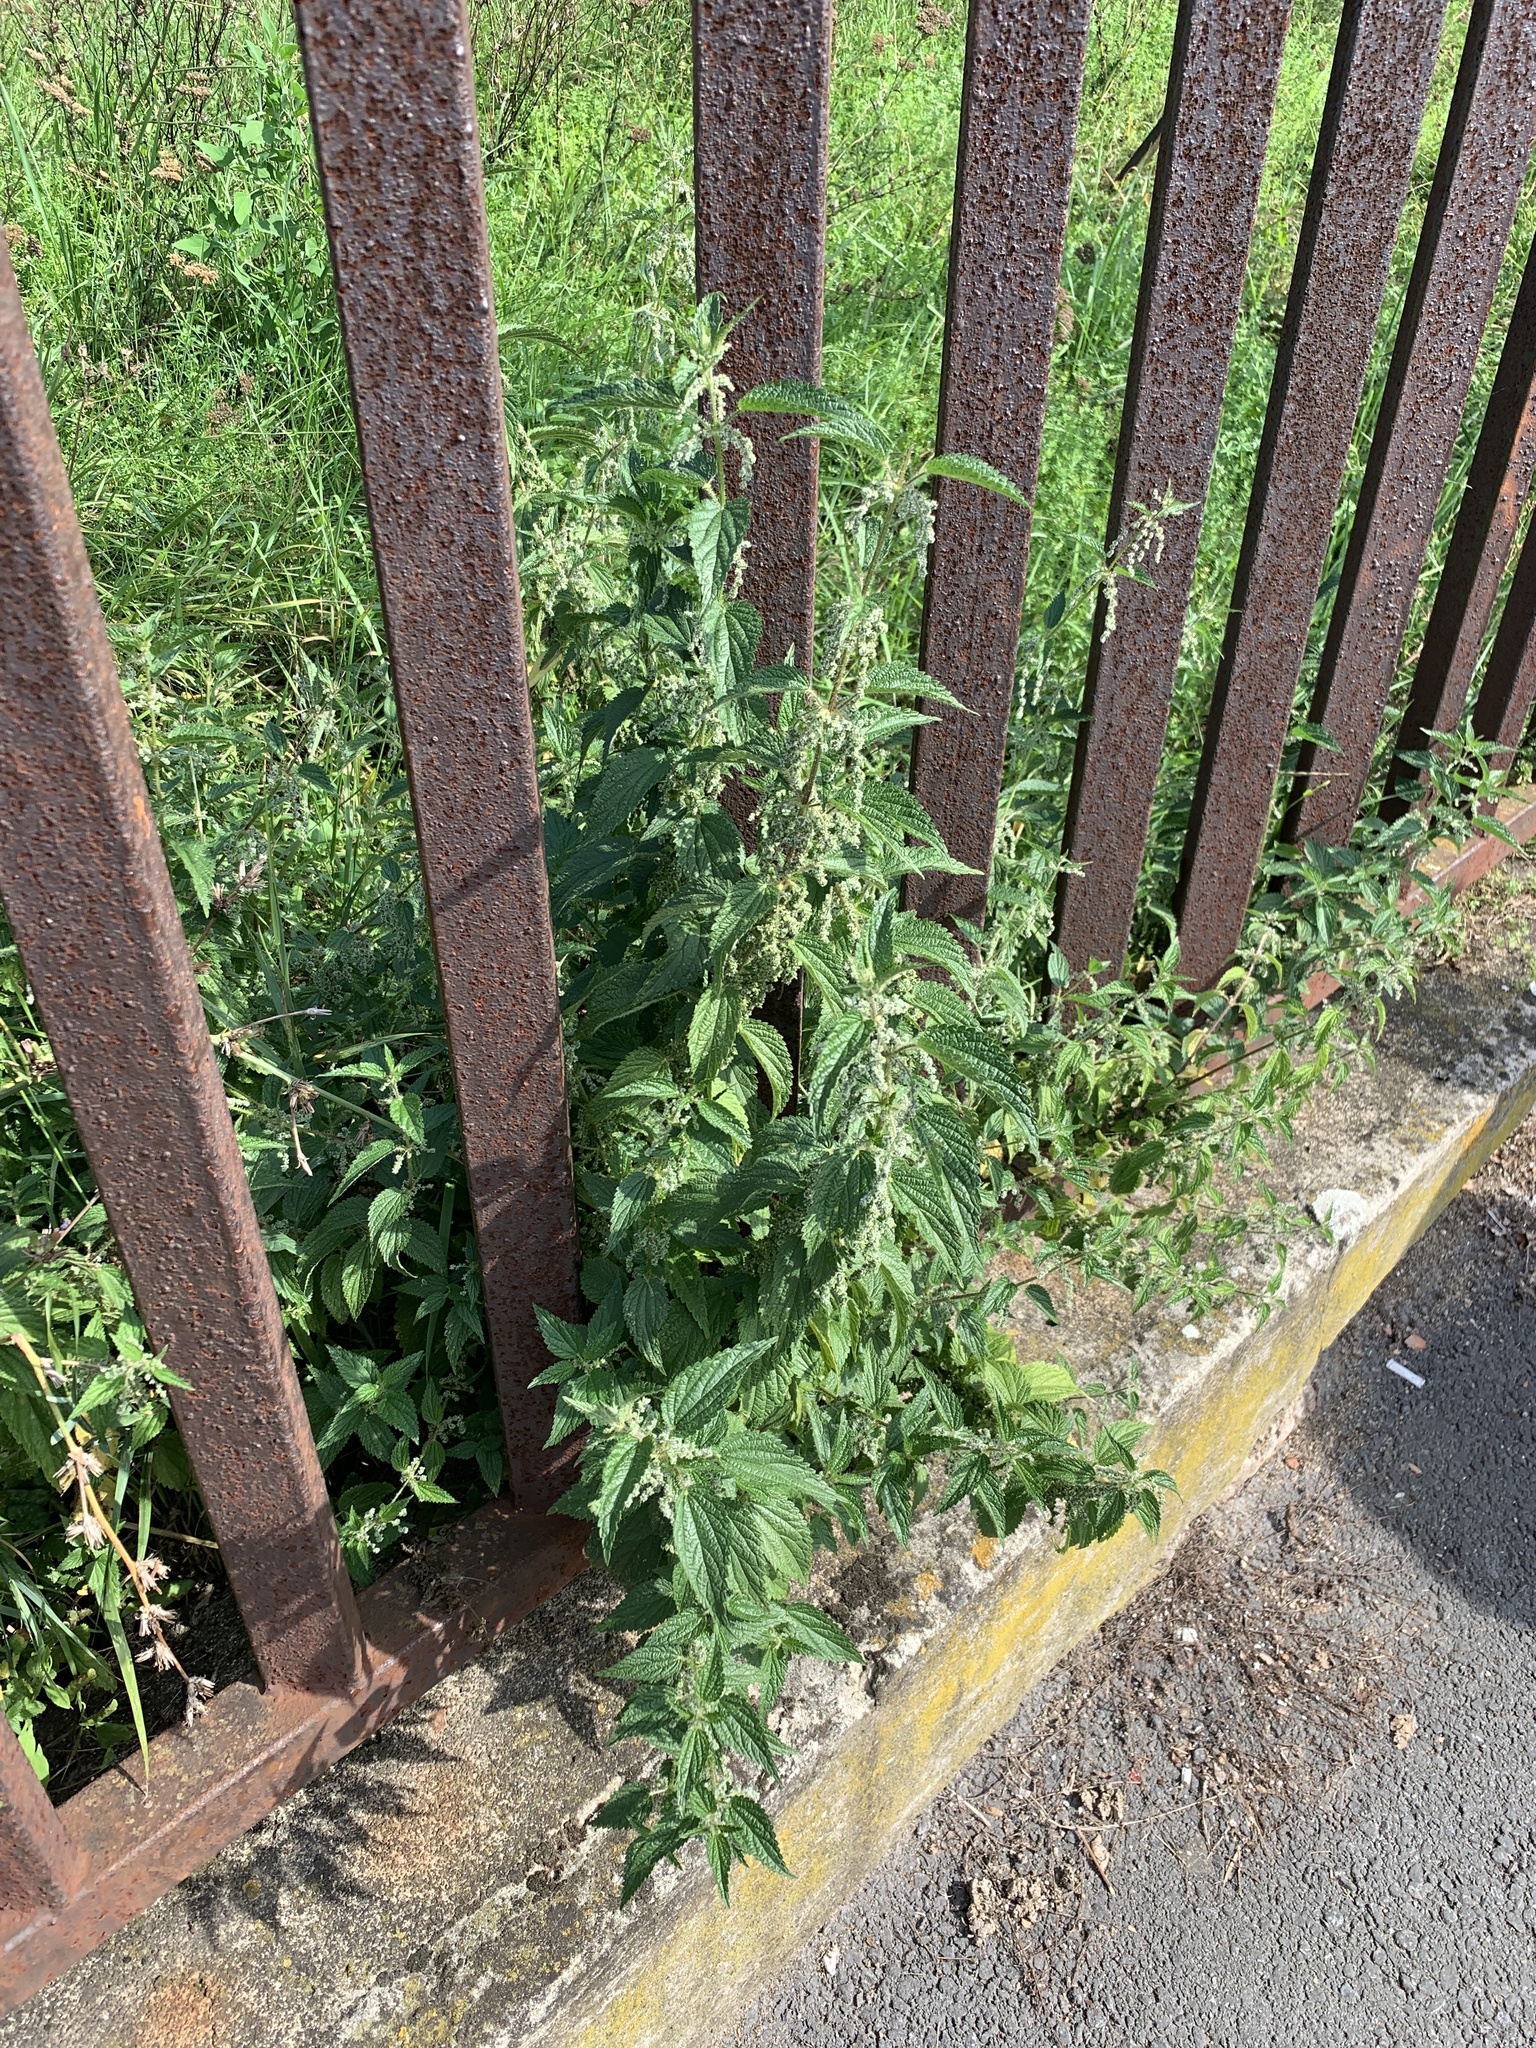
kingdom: Plantae
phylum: Tracheophyta
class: Magnoliopsida
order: Rosales
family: Urticaceae
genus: Urtica
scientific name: Urtica dioica
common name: Common nettle
